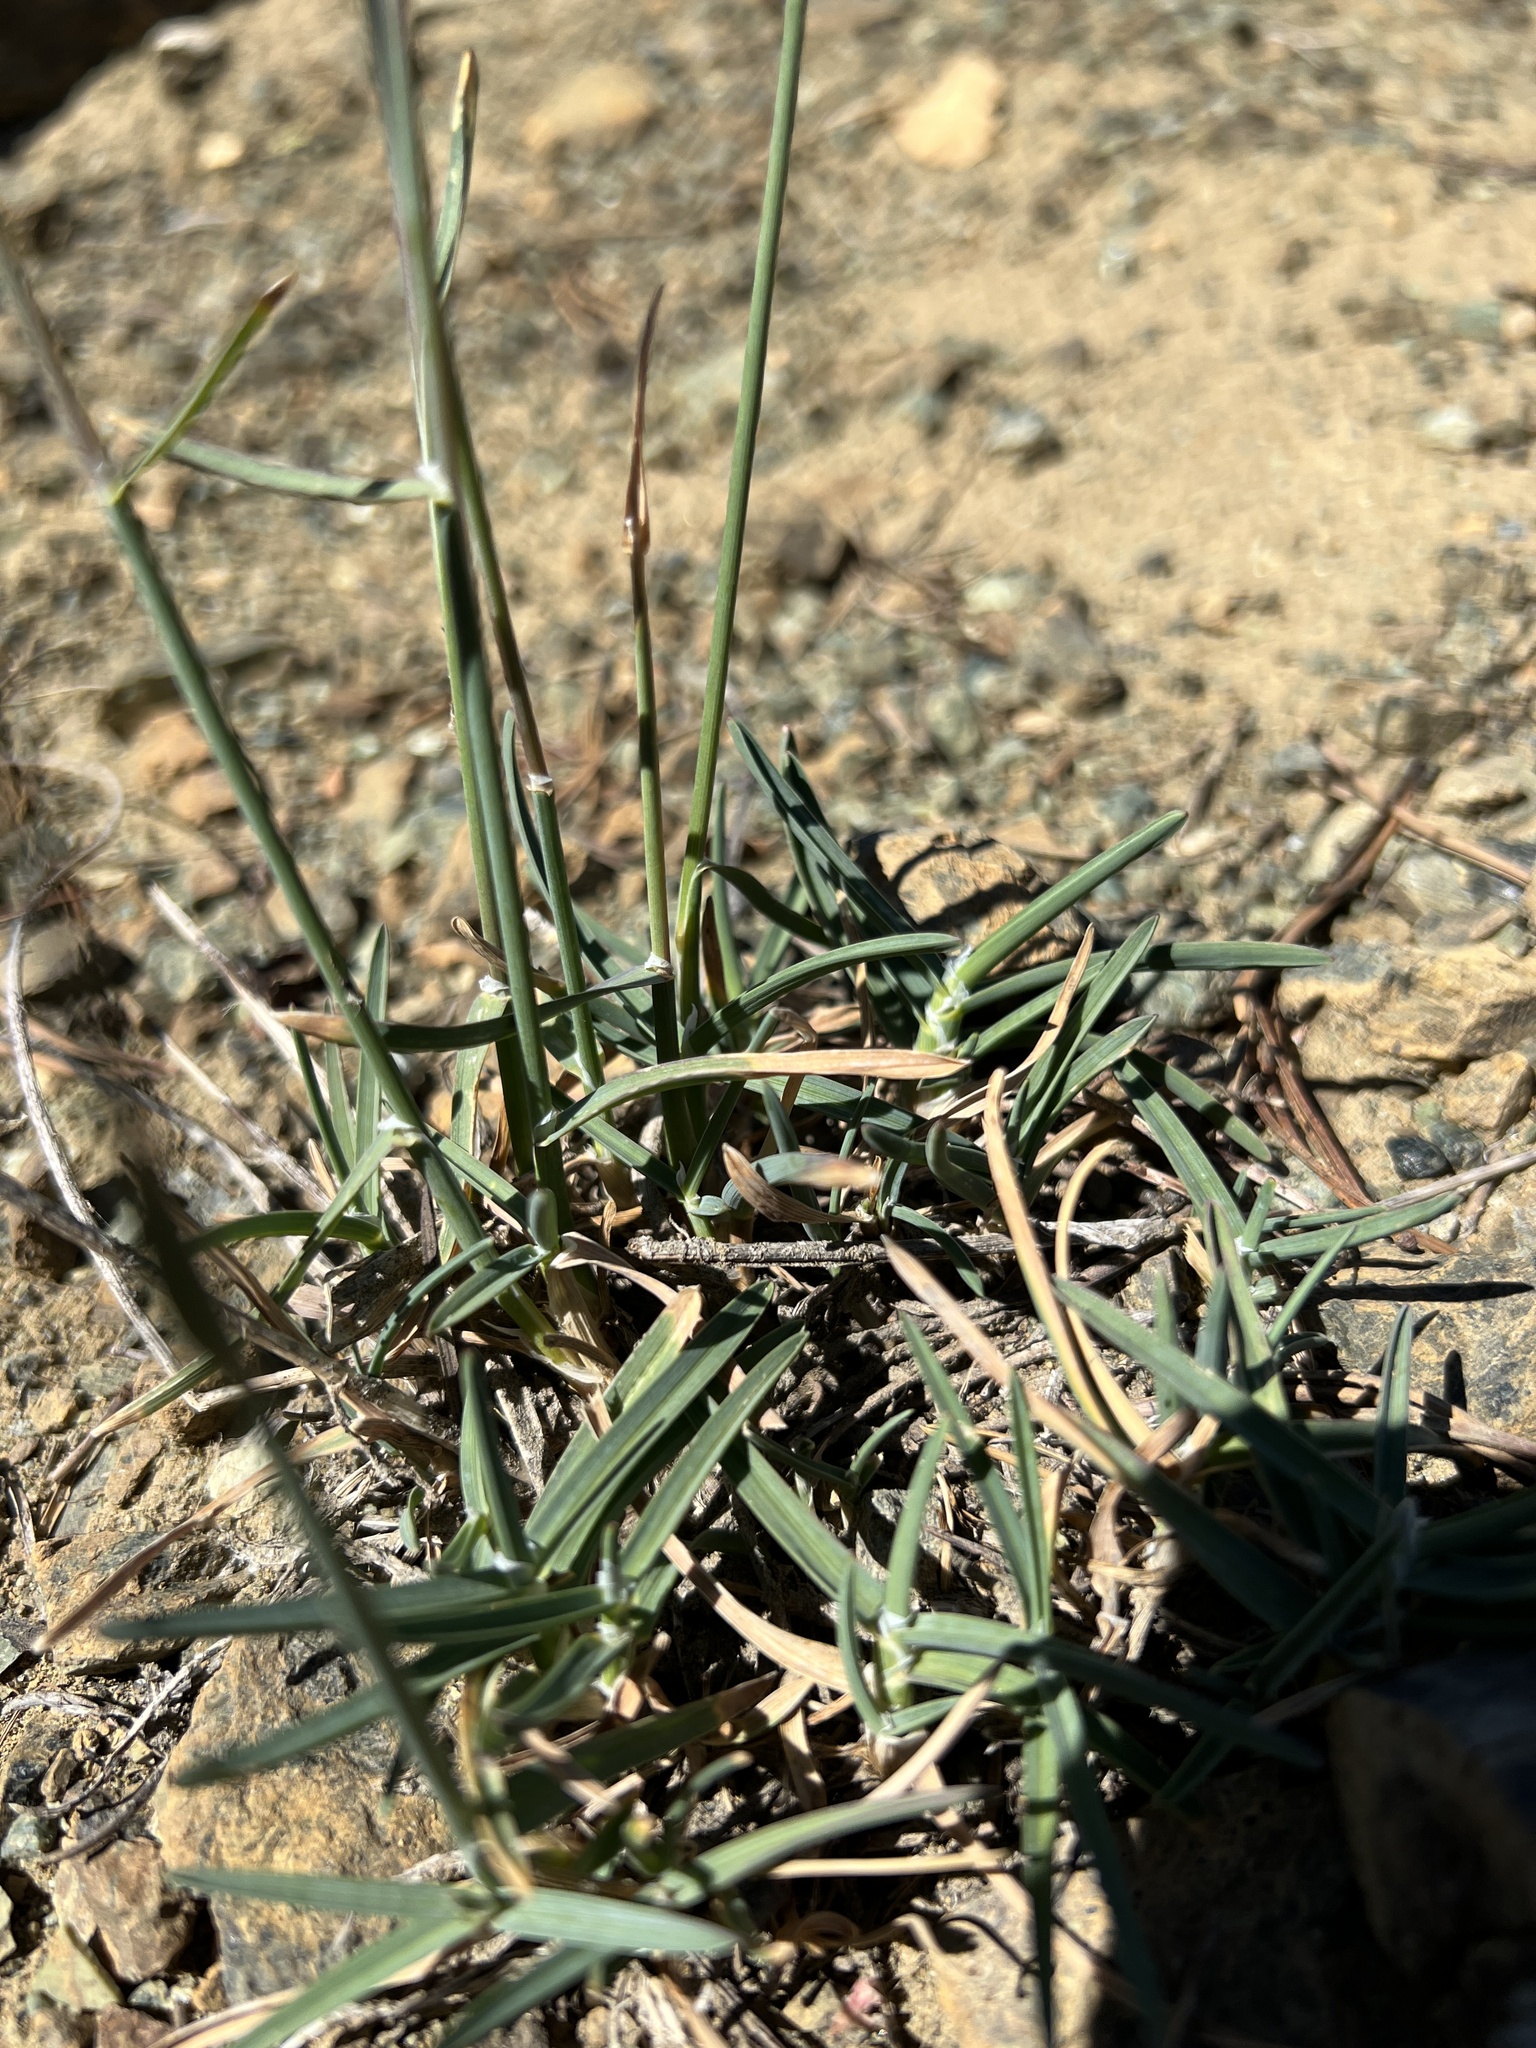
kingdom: Plantae
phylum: Tracheophyta
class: Liliopsida
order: Poales
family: Poaceae
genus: Poa
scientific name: Poa curtifolia
